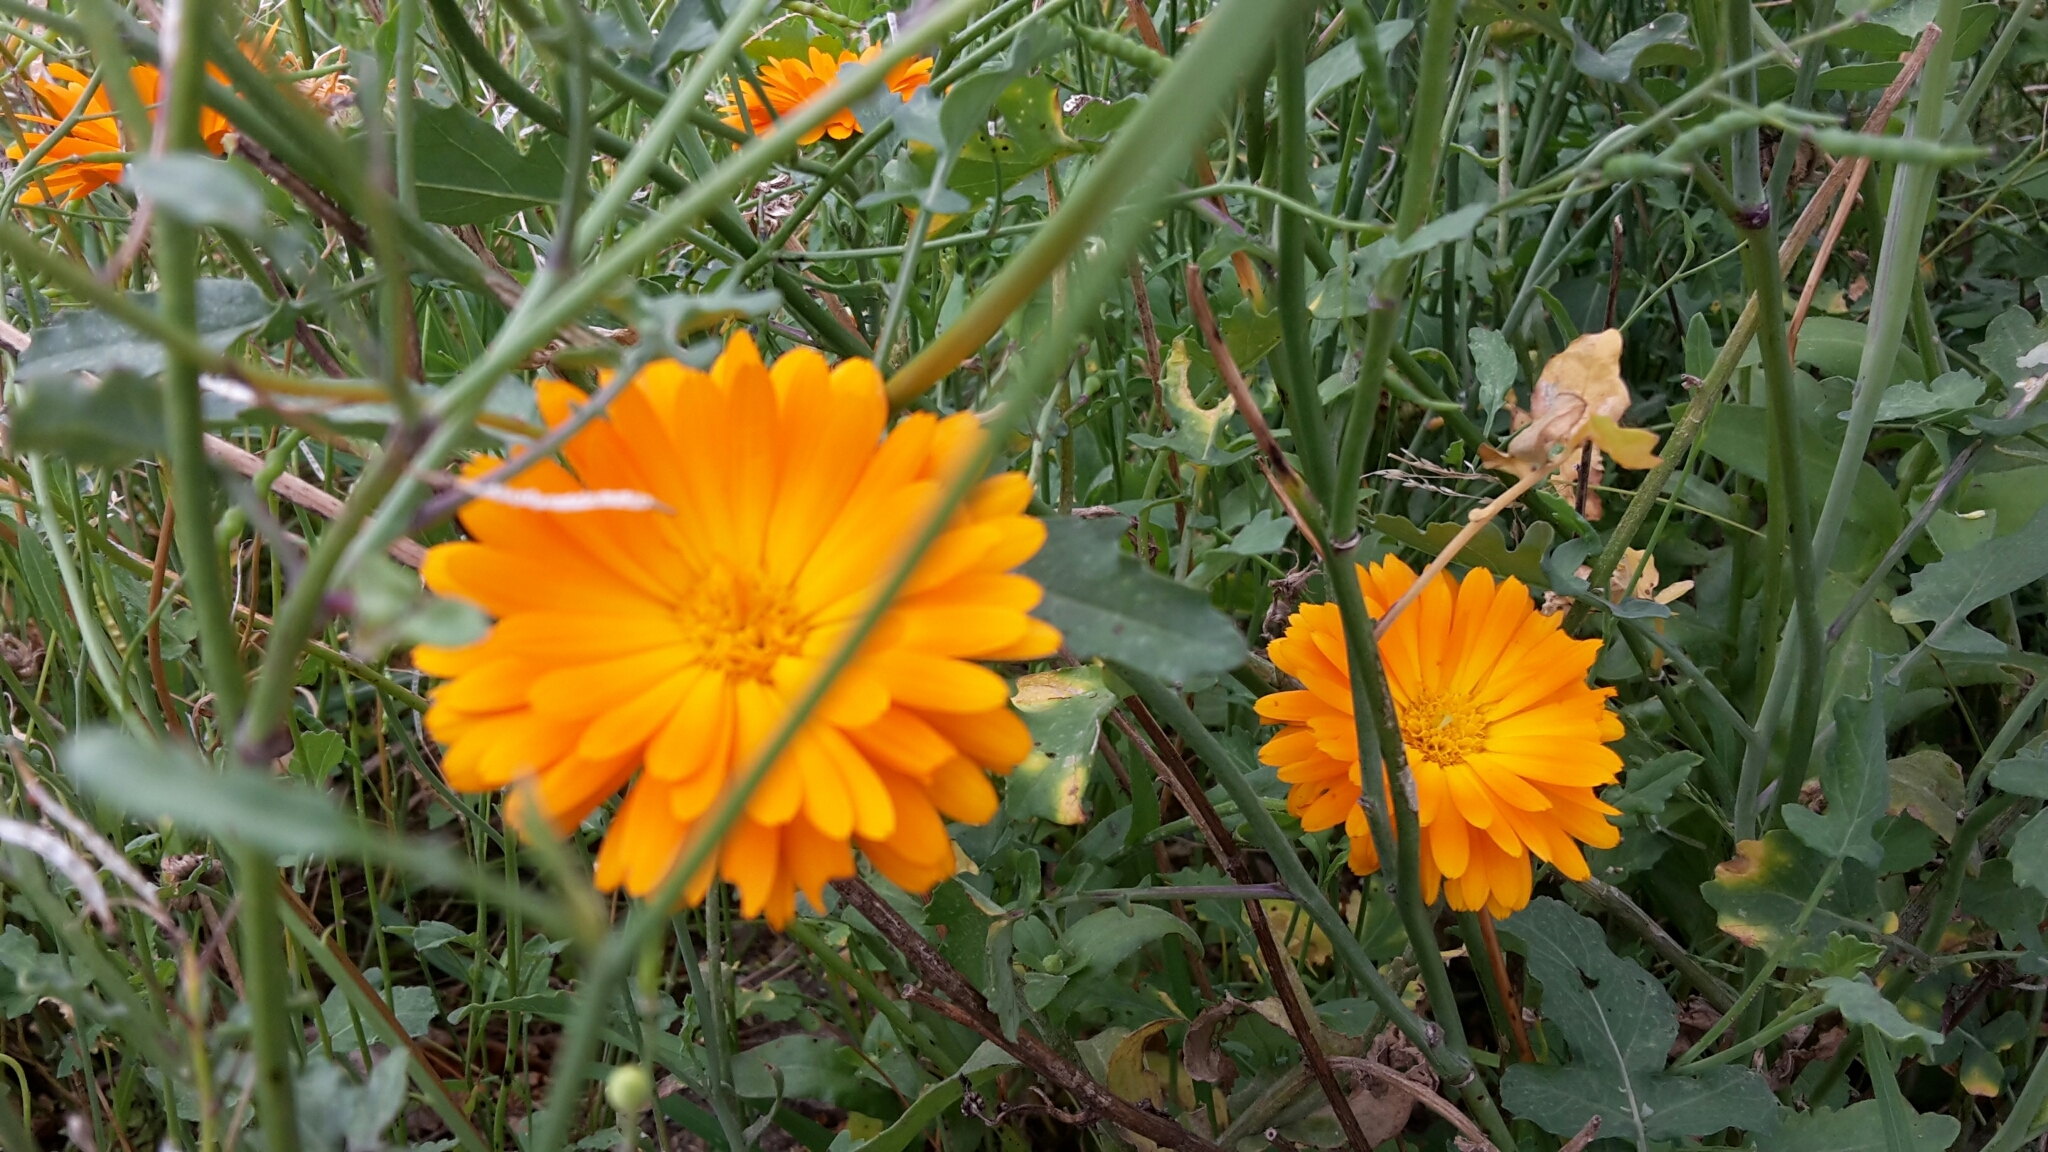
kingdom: Plantae
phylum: Tracheophyta
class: Magnoliopsida
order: Asterales
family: Asteraceae
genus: Calendula
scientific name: Calendula officinalis
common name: Pot marigold
